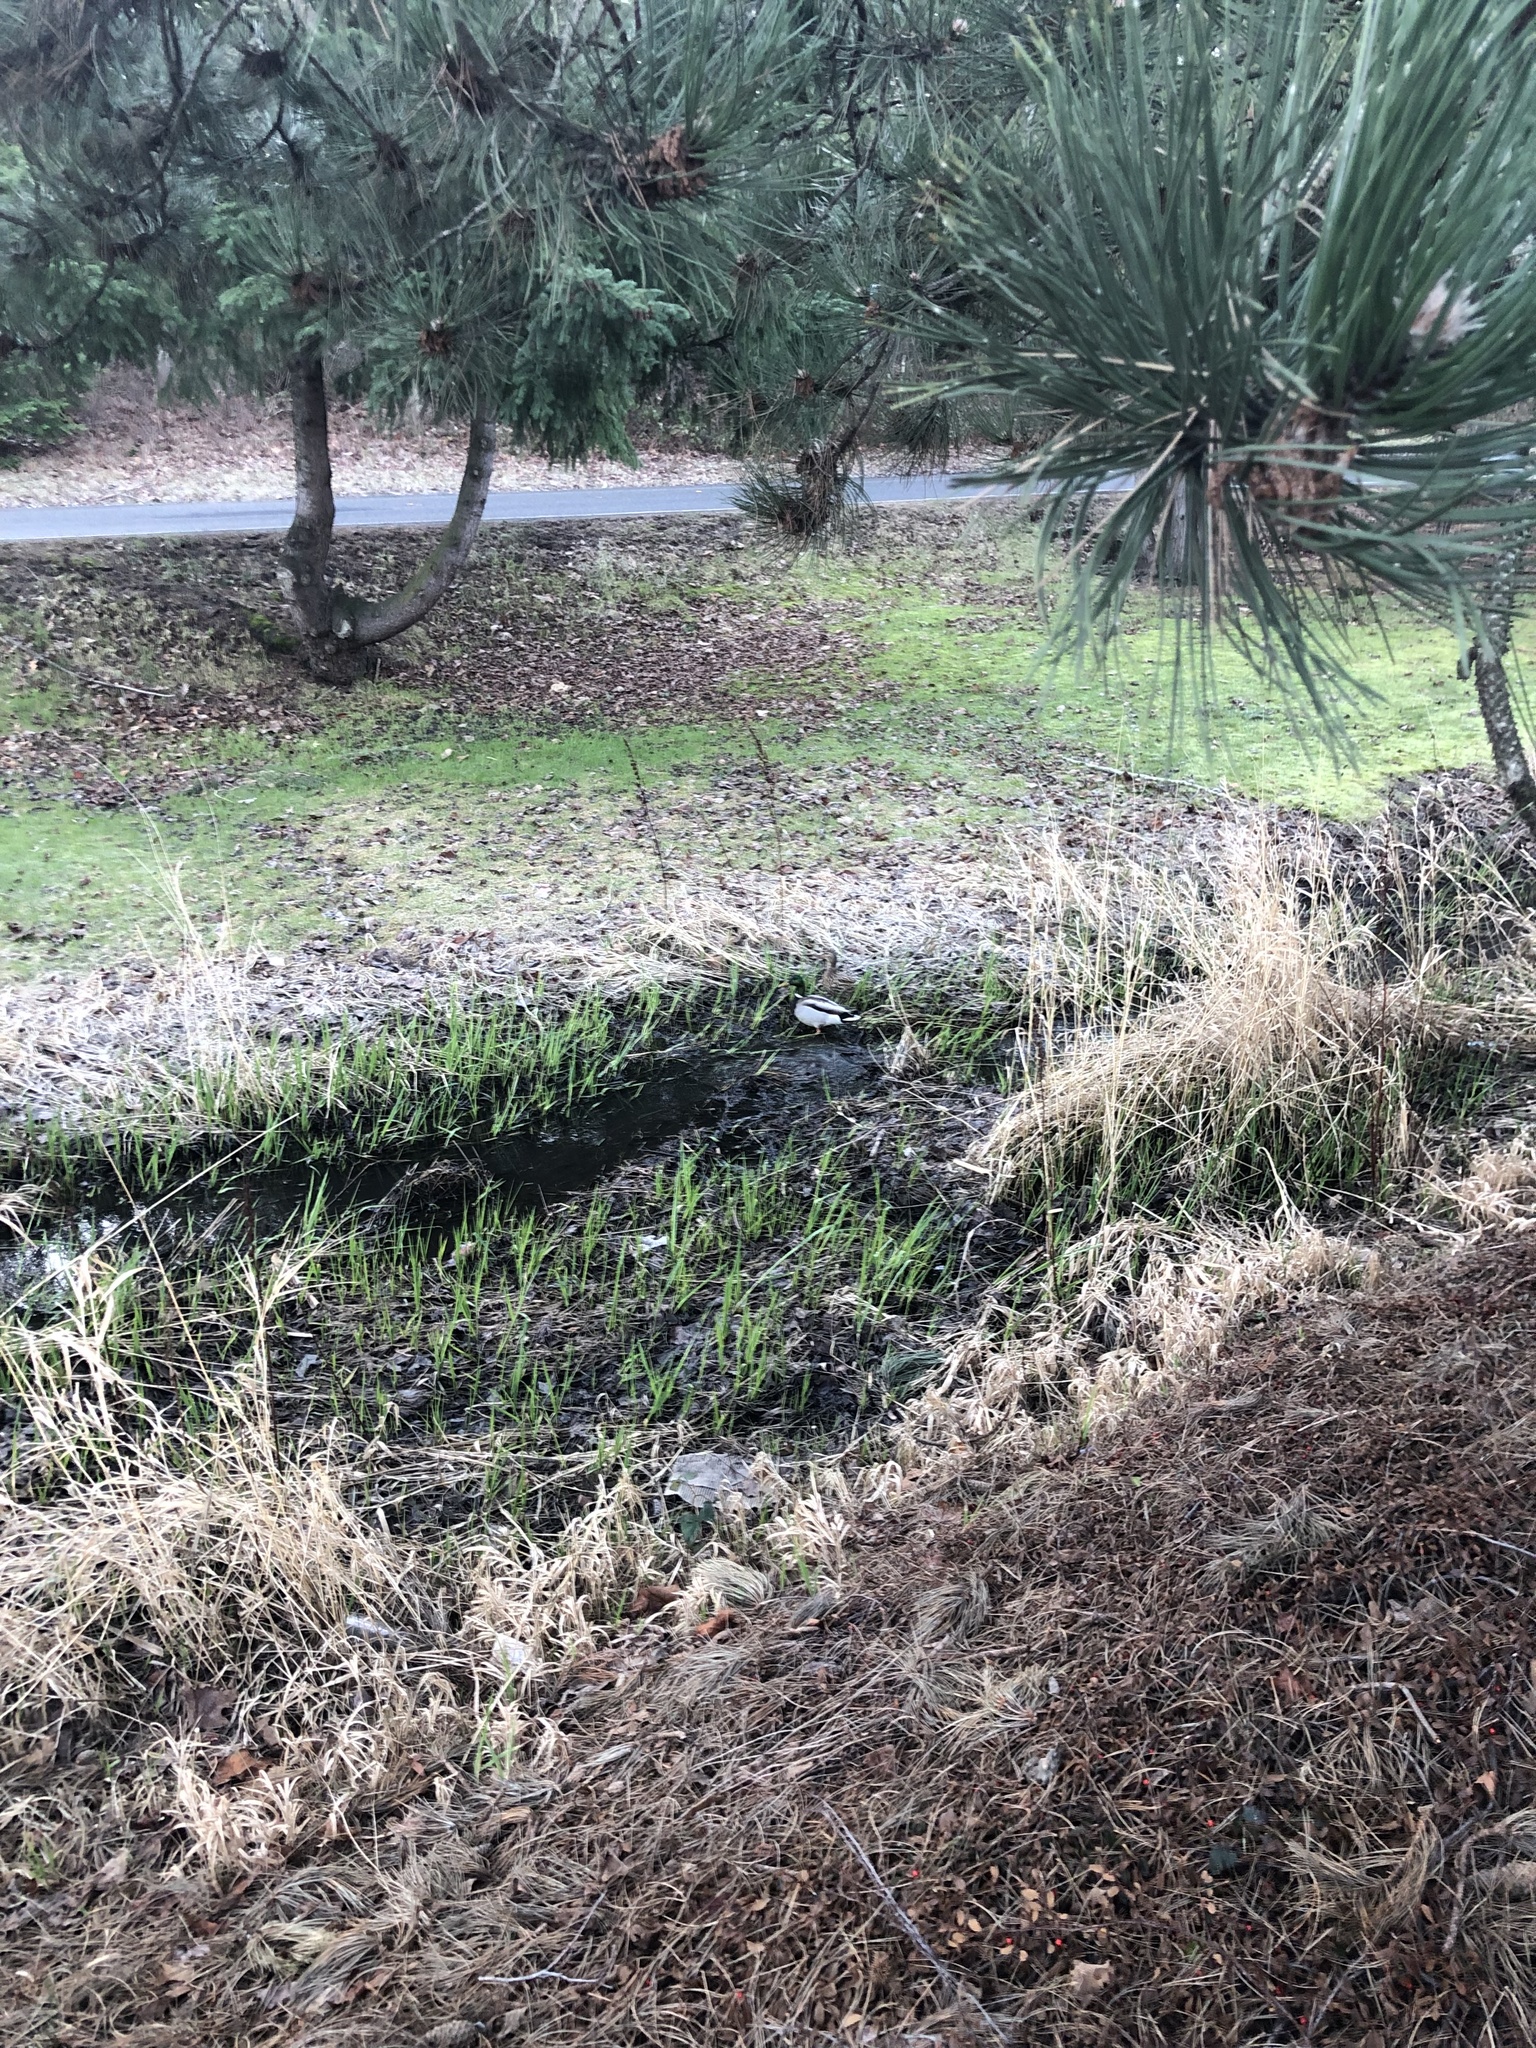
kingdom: Animalia
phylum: Chordata
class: Aves
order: Anseriformes
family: Anatidae
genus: Anas
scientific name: Anas platyrhynchos
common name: Mallard
